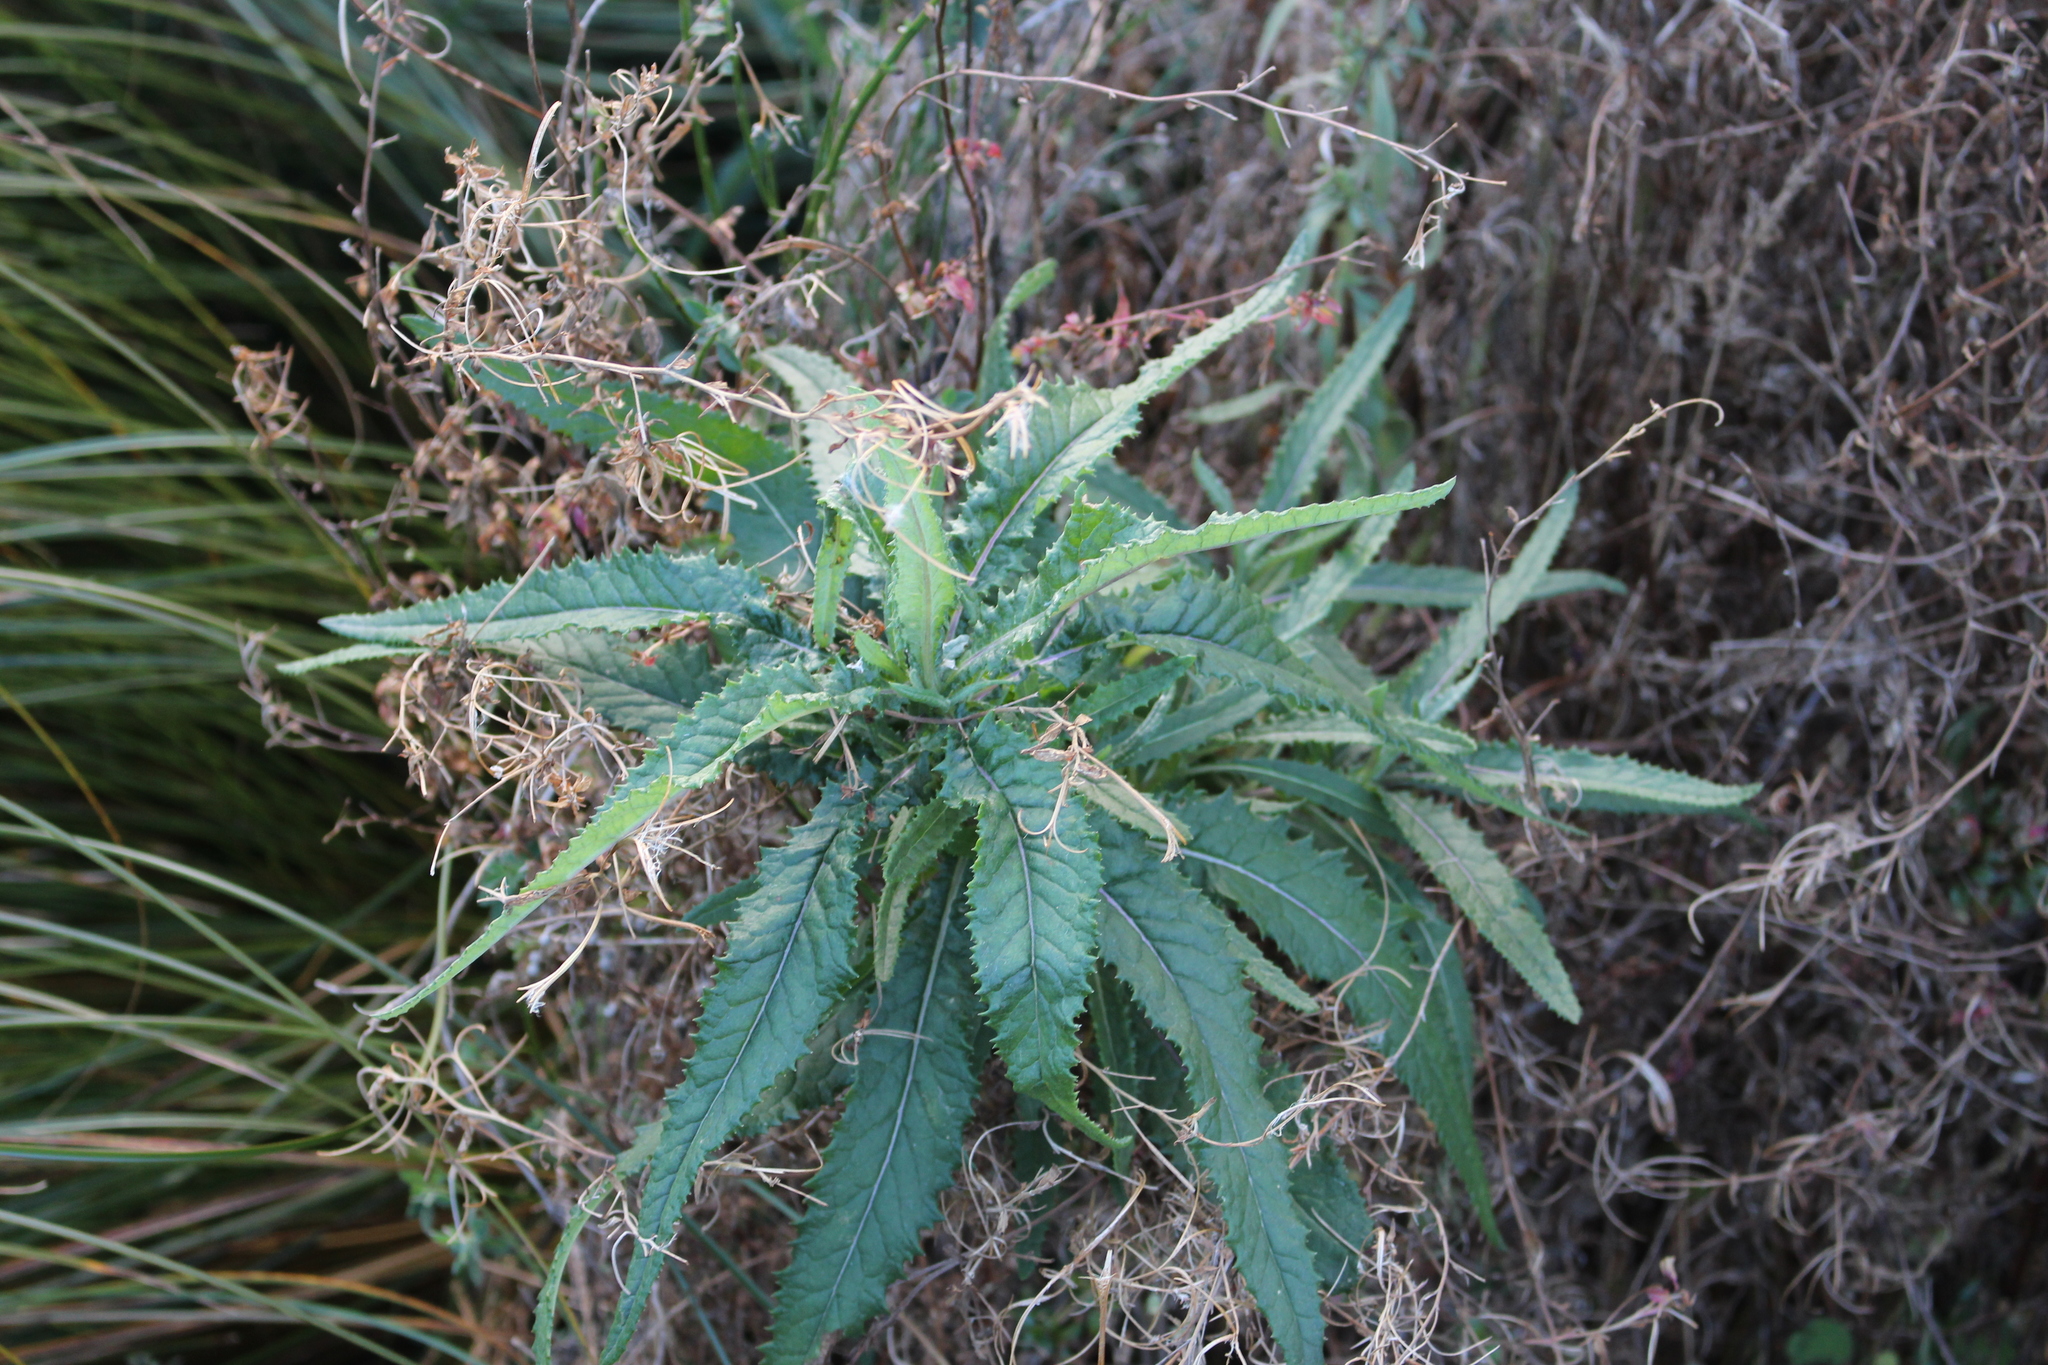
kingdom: Plantae
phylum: Tracheophyta
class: Magnoliopsida
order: Asterales
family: Asteraceae
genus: Senecio
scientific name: Senecio minimus
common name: Toothed fireweed
